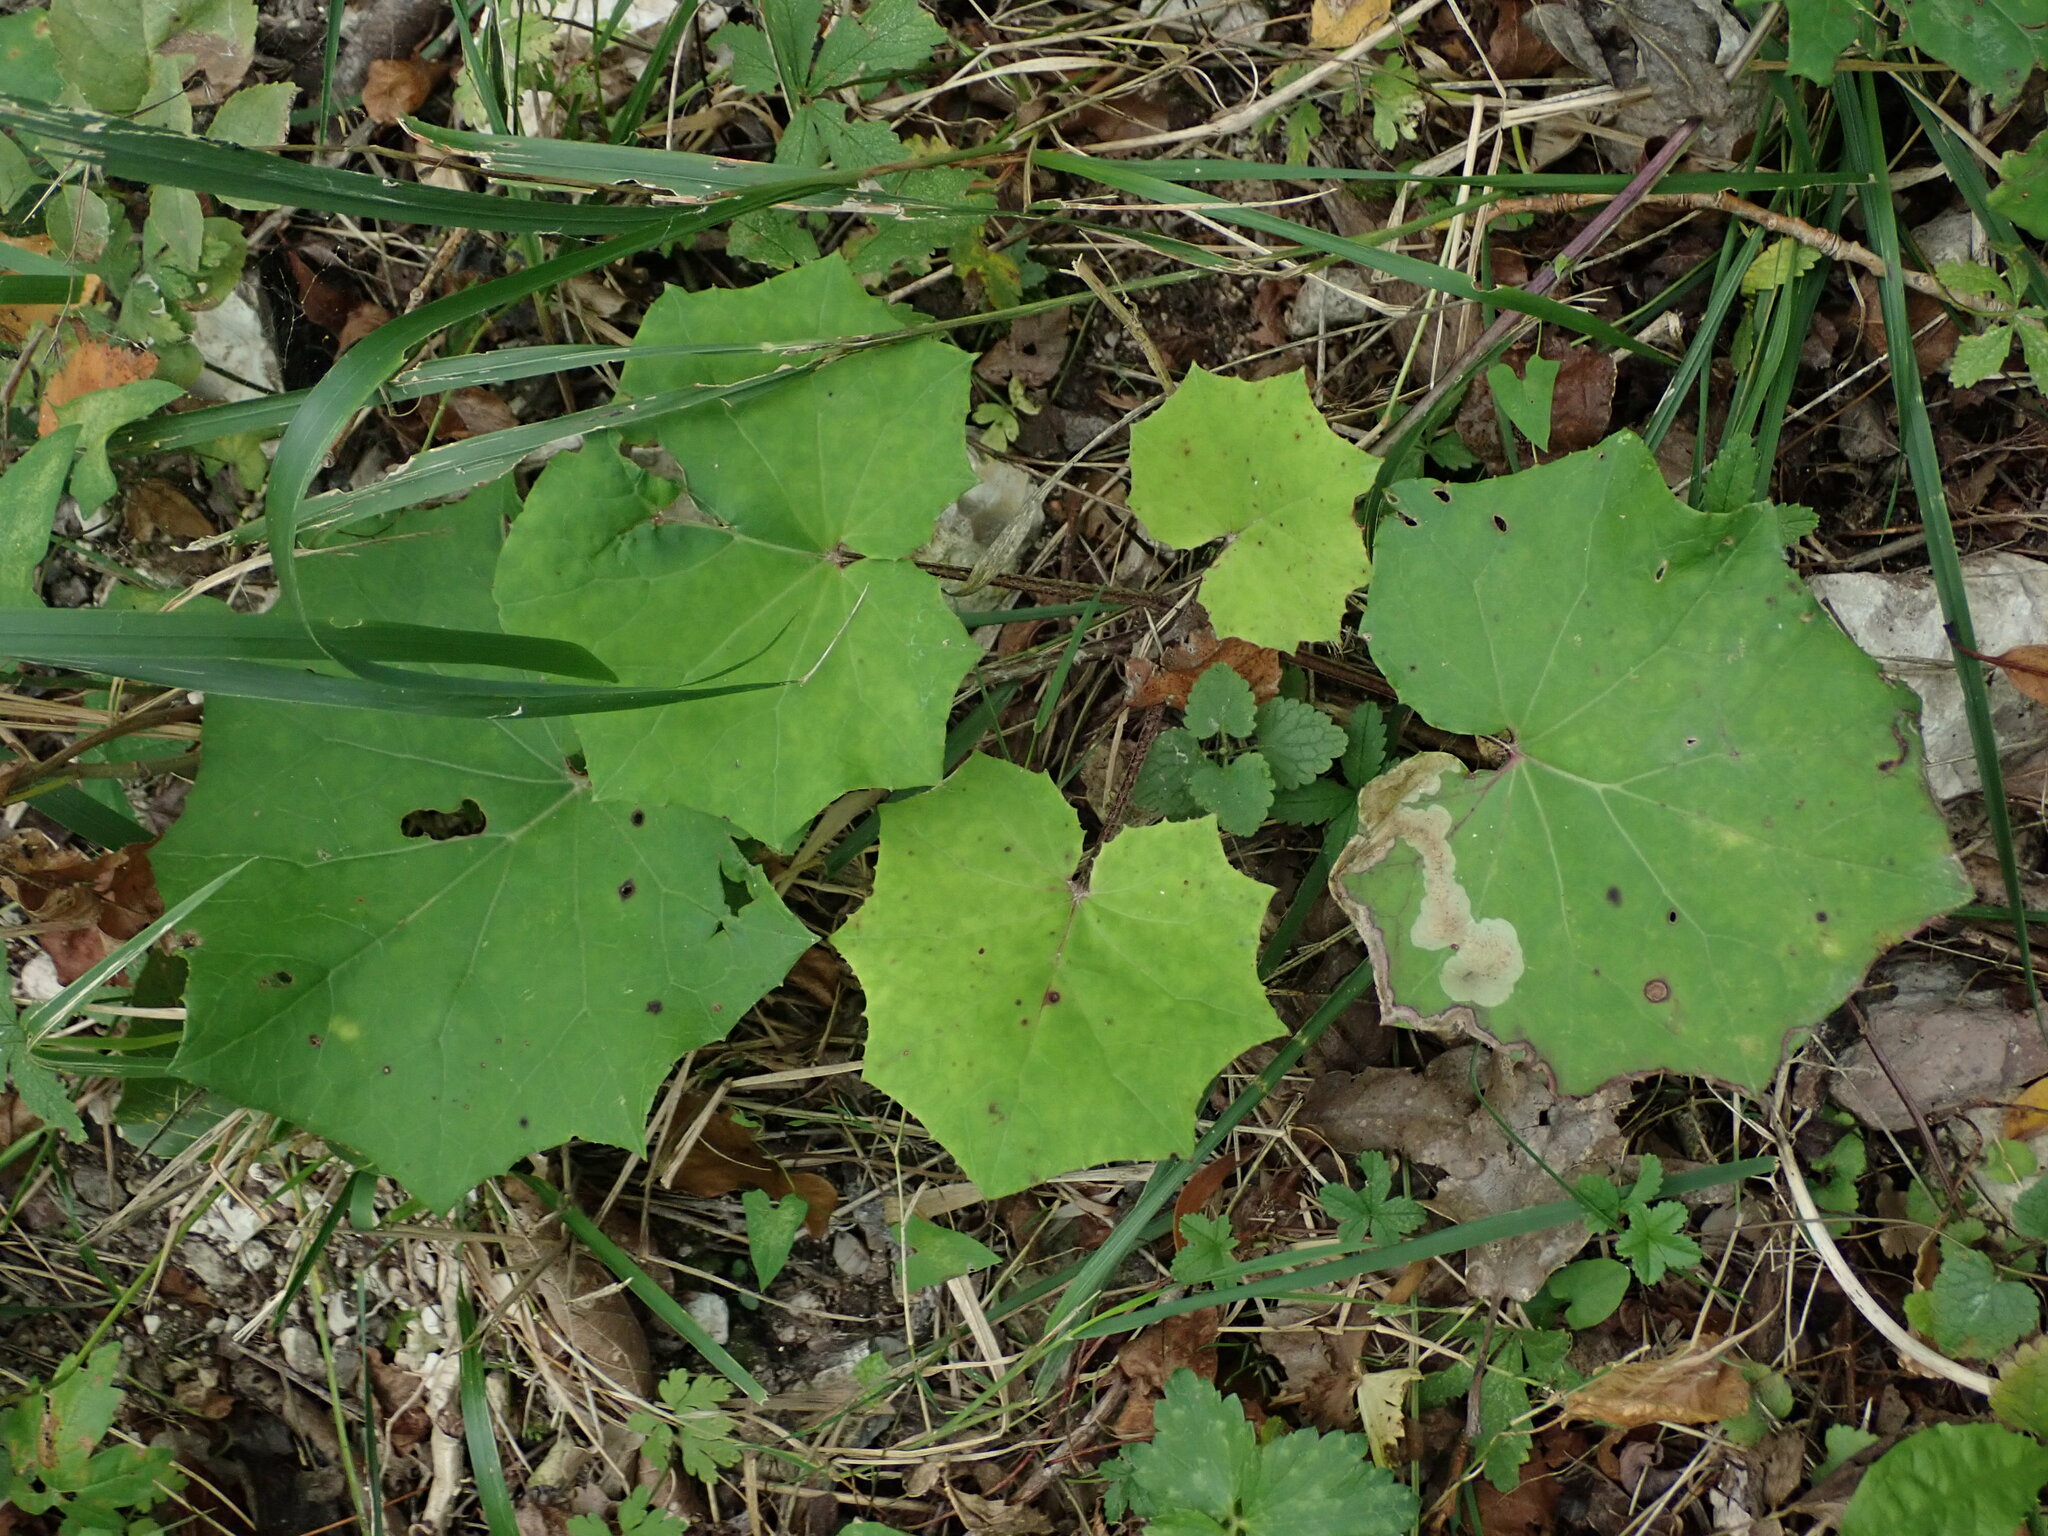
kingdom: Plantae
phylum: Tracheophyta
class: Magnoliopsida
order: Asterales
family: Asteraceae
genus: Tussilago
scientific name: Tussilago farfara
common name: Coltsfoot
